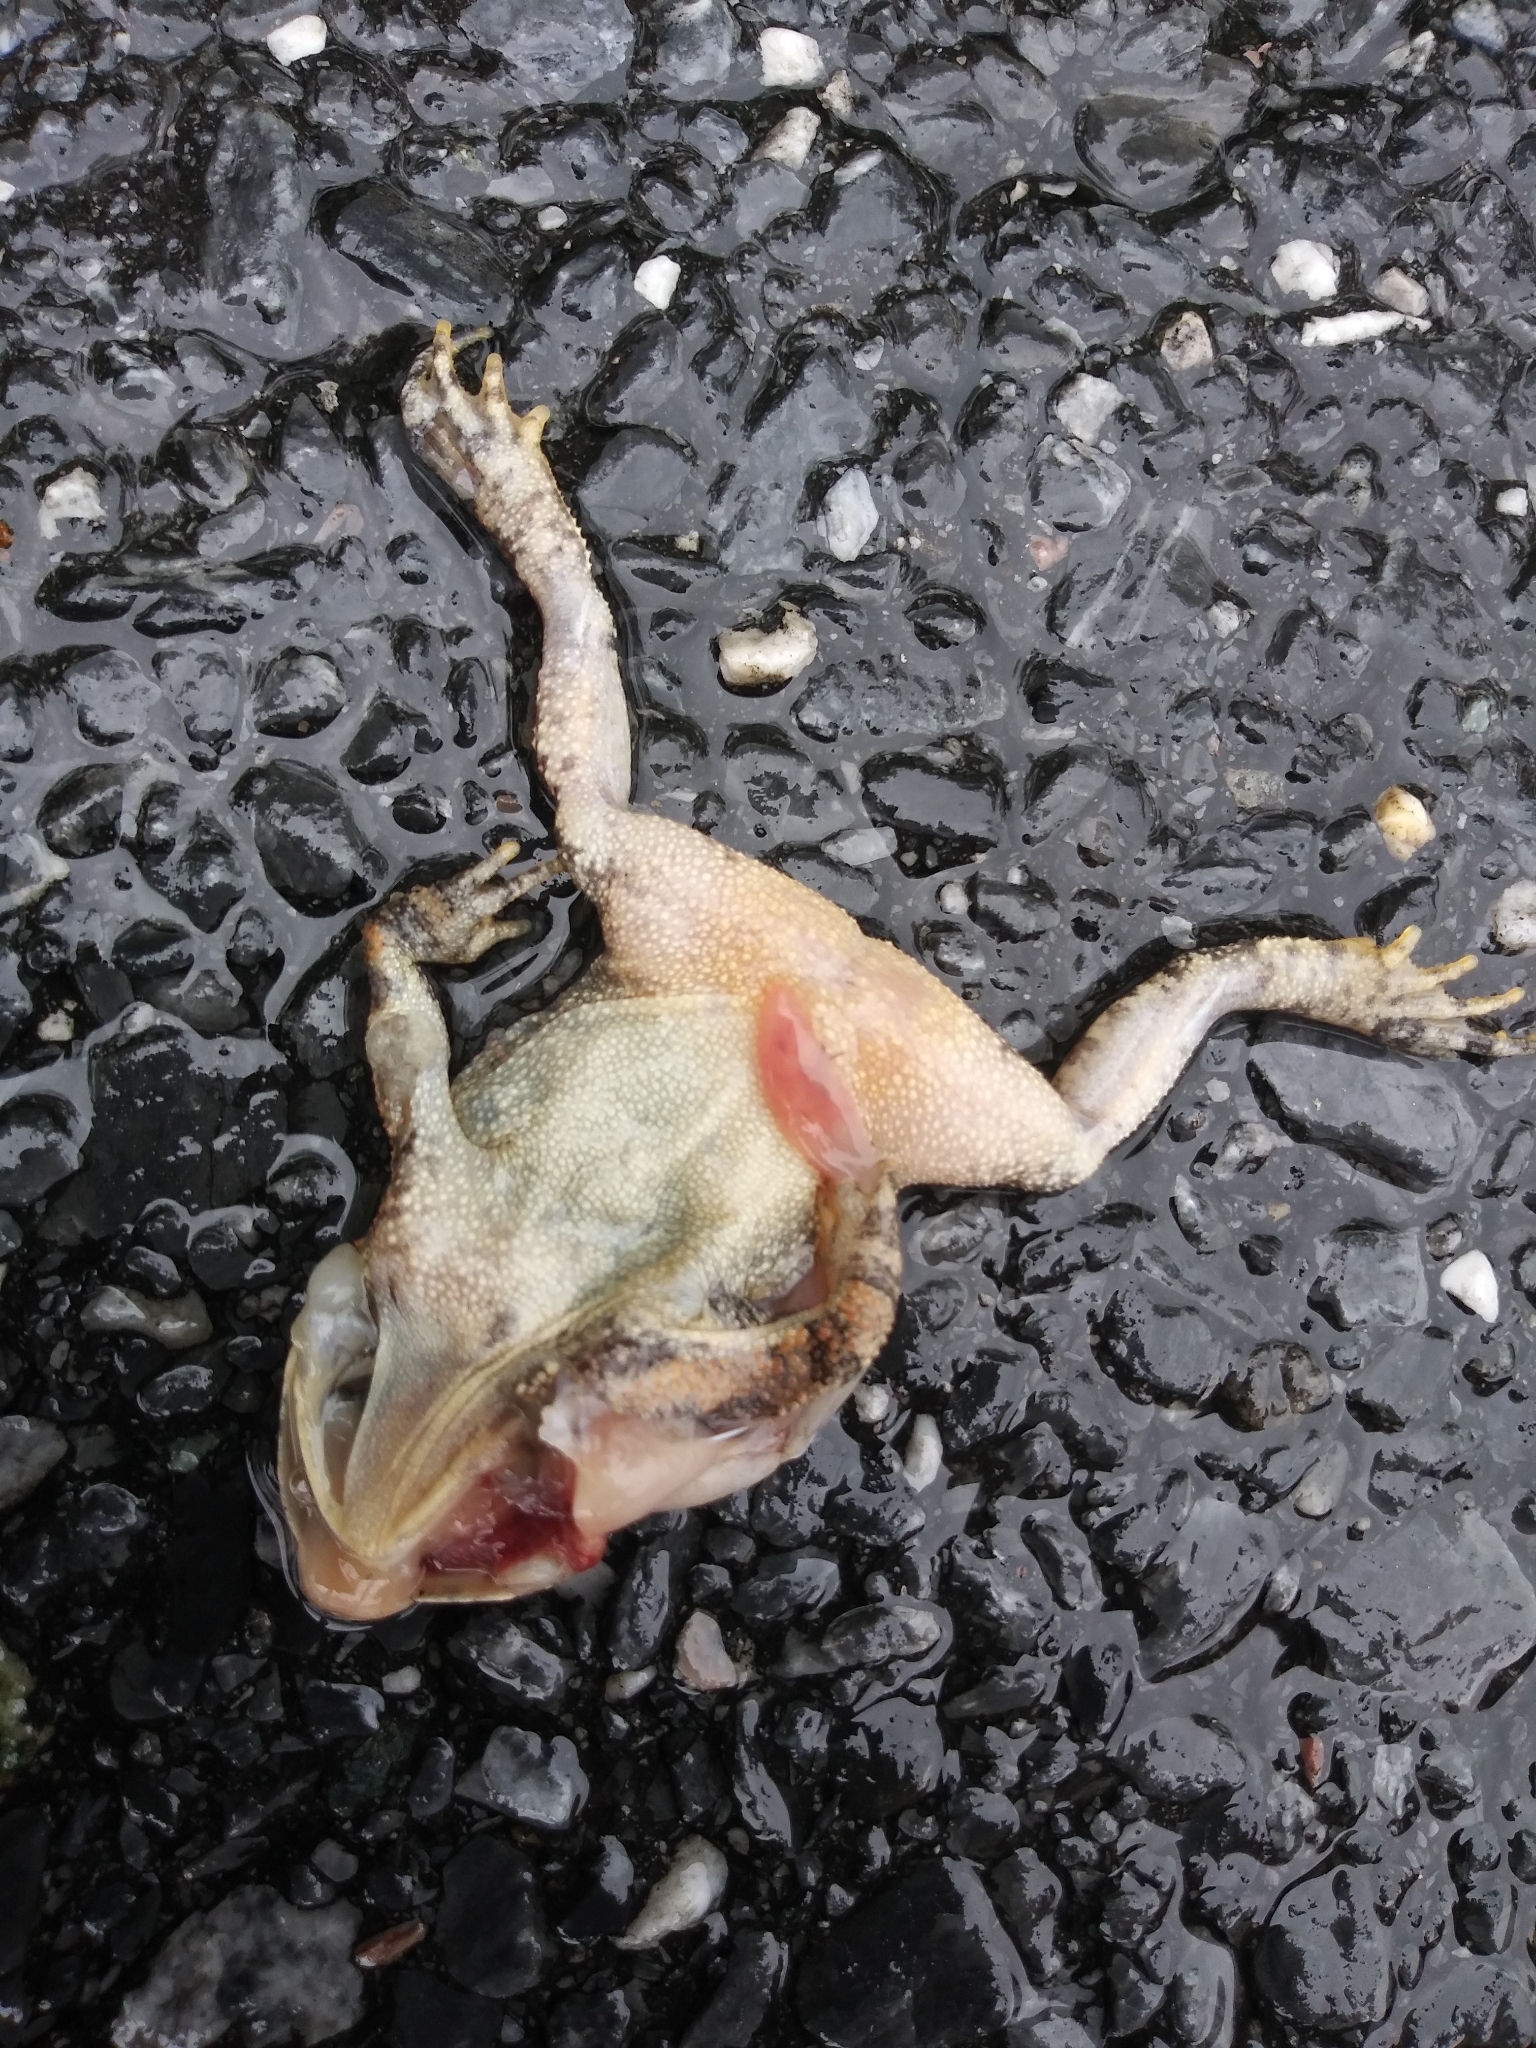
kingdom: Animalia
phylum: Chordata
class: Amphibia
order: Anura
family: Bufonidae
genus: Anaxyrus
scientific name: Anaxyrus americanus
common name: American toad
